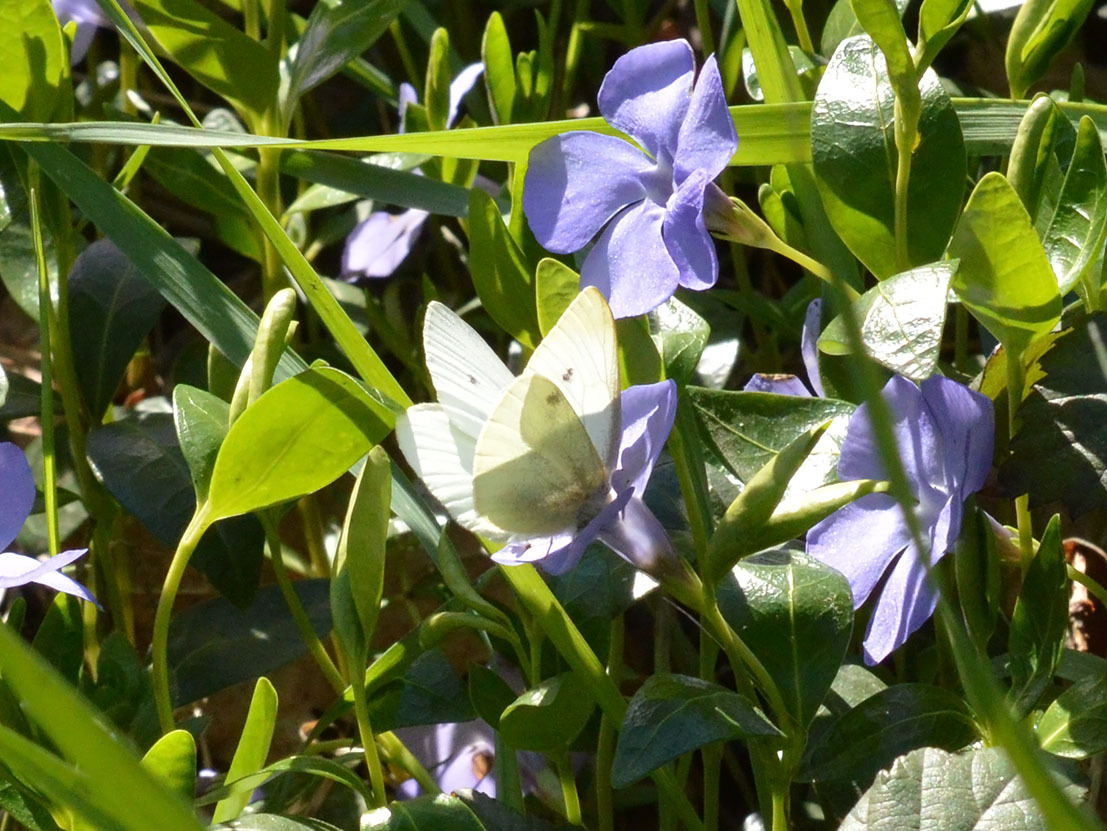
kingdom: Animalia
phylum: Arthropoda
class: Insecta
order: Lepidoptera
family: Pieridae
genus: Pieris
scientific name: Pieris rapae
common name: Small white
